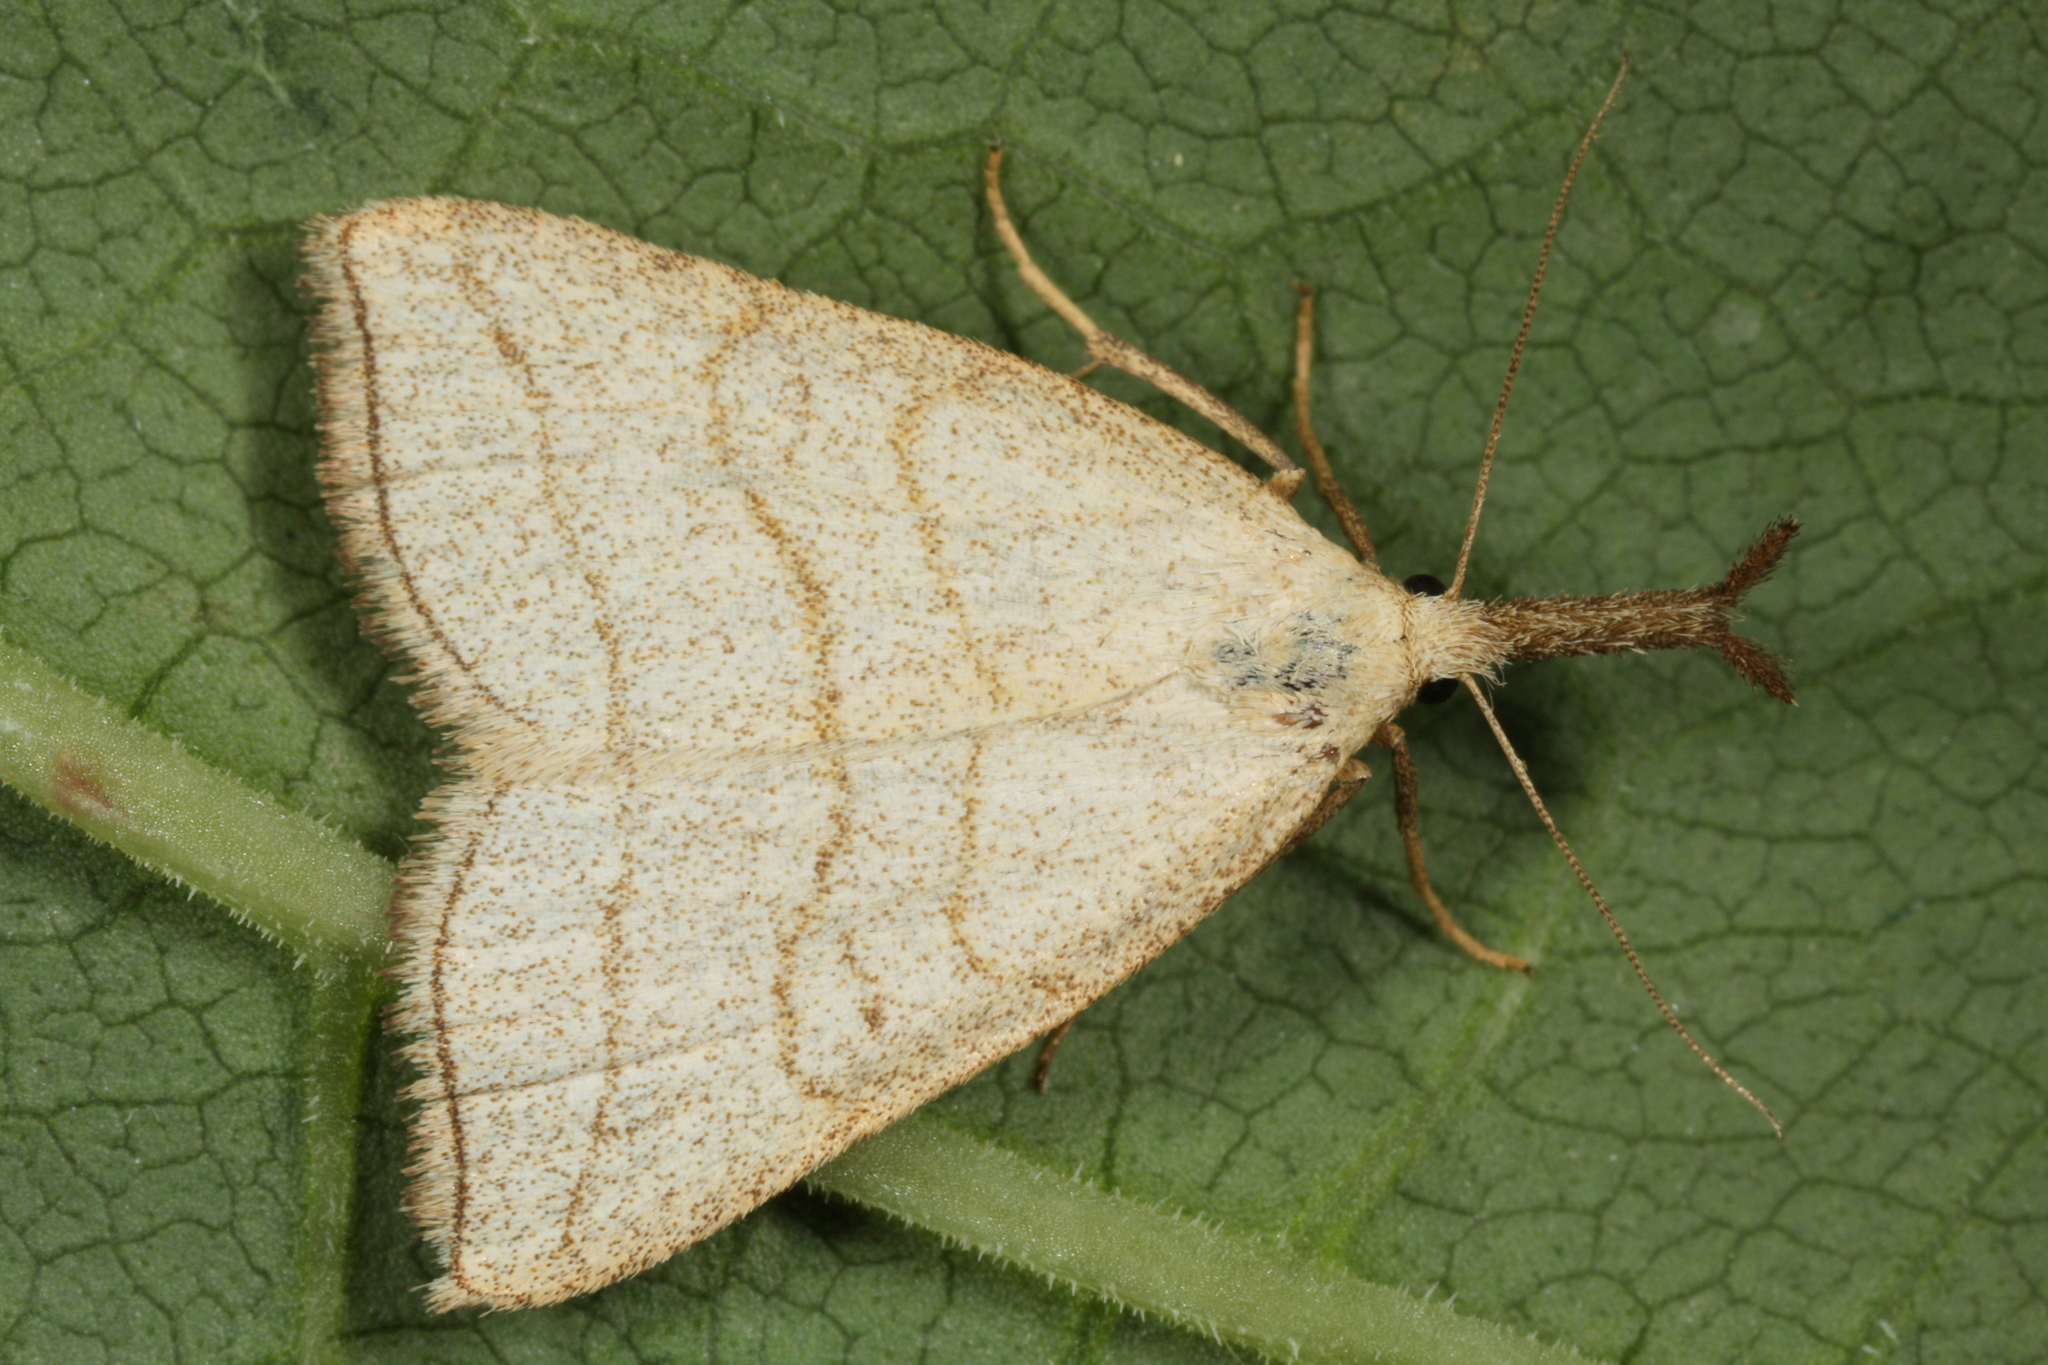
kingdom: Animalia
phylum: Arthropoda
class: Insecta
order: Lepidoptera
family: Erebidae
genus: Polypogon
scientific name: Polypogon tentacularia
